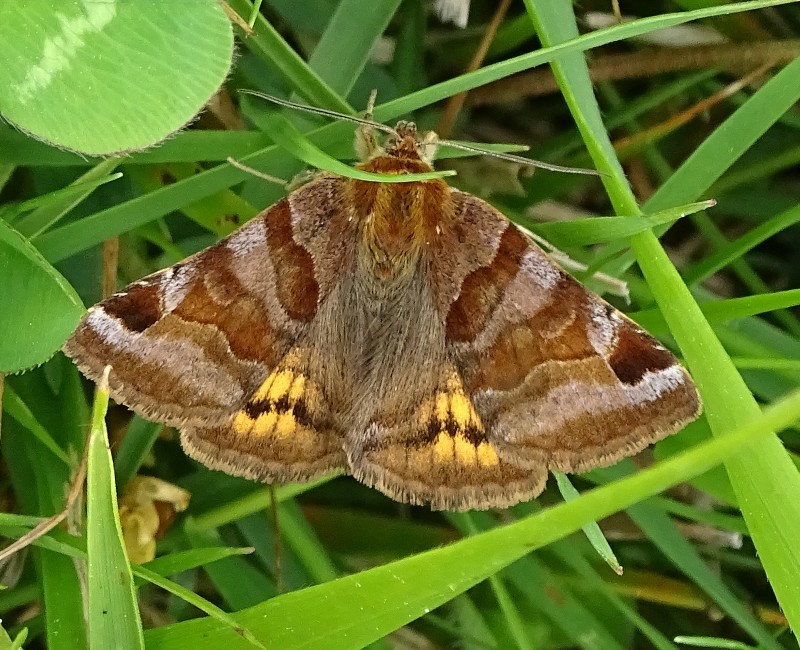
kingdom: Animalia
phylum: Arthropoda
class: Insecta
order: Lepidoptera
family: Erebidae
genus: Euclidia
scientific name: Euclidia glyphica
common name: Burnet companion
